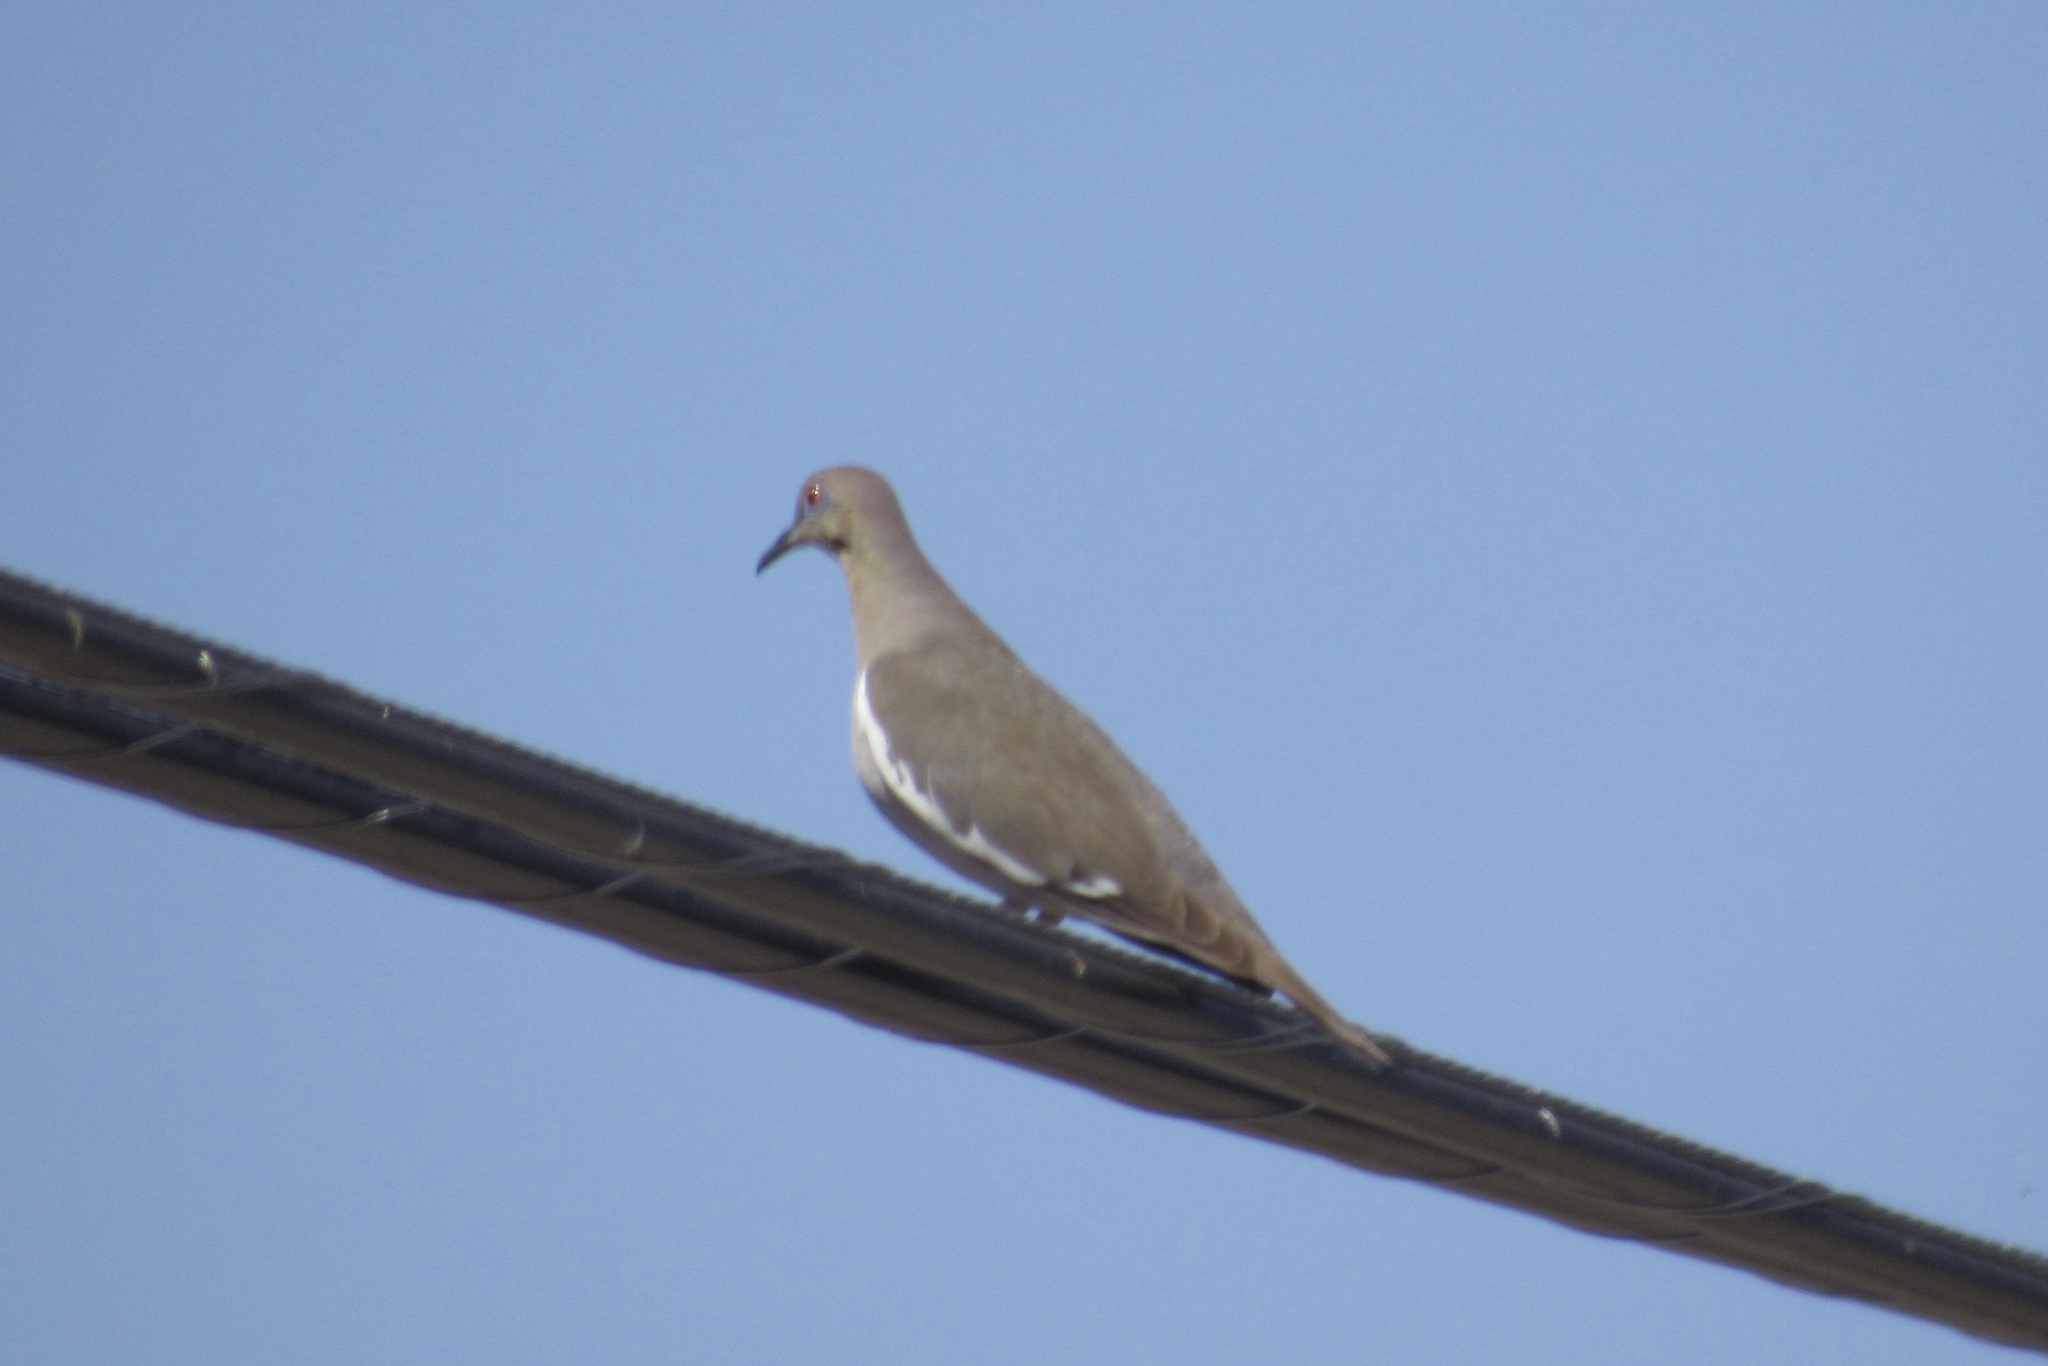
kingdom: Animalia
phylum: Chordata
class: Aves
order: Columbiformes
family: Columbidae
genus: Zenaida
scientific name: Zenaida asiatica
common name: White-winged dove
